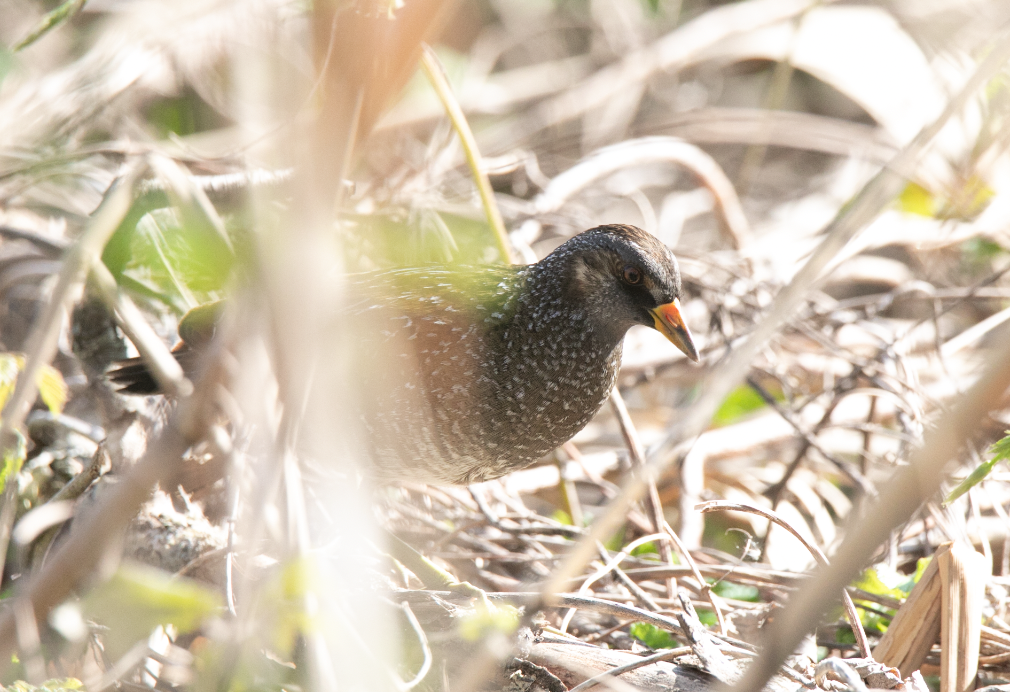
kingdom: Animalia
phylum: Chordata
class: Aves
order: Gruiformes
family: Rallidae
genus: Porzana
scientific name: Porzana porzana
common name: Spotted crake
